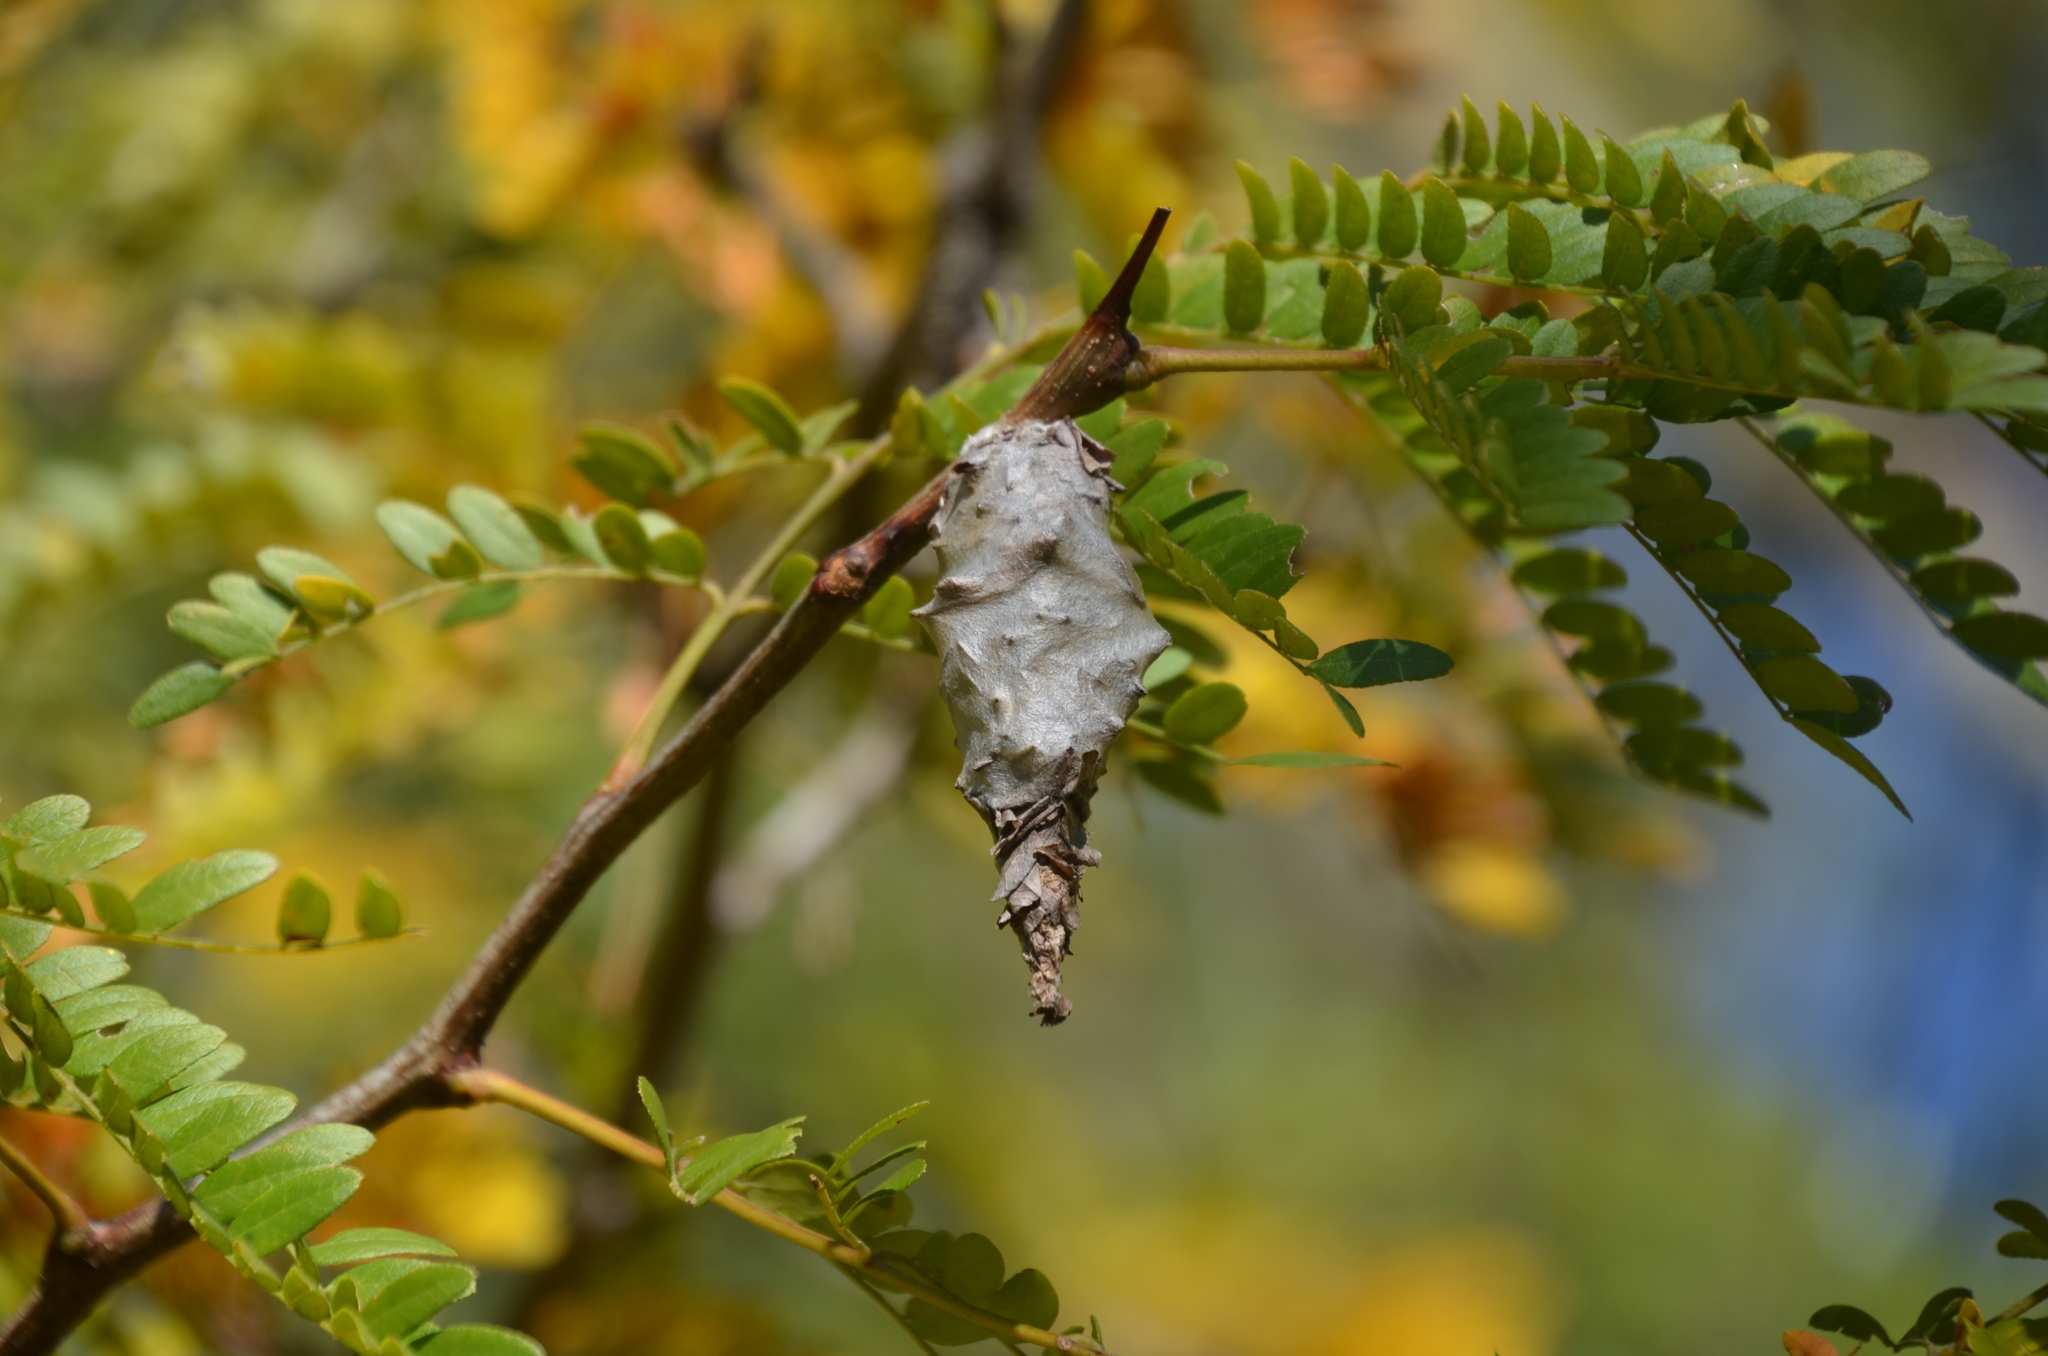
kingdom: Animalia
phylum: Arthropoda
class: Insecta
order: Lepidoptera
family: Psychidae
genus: Oiketicus
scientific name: Oiketicus
